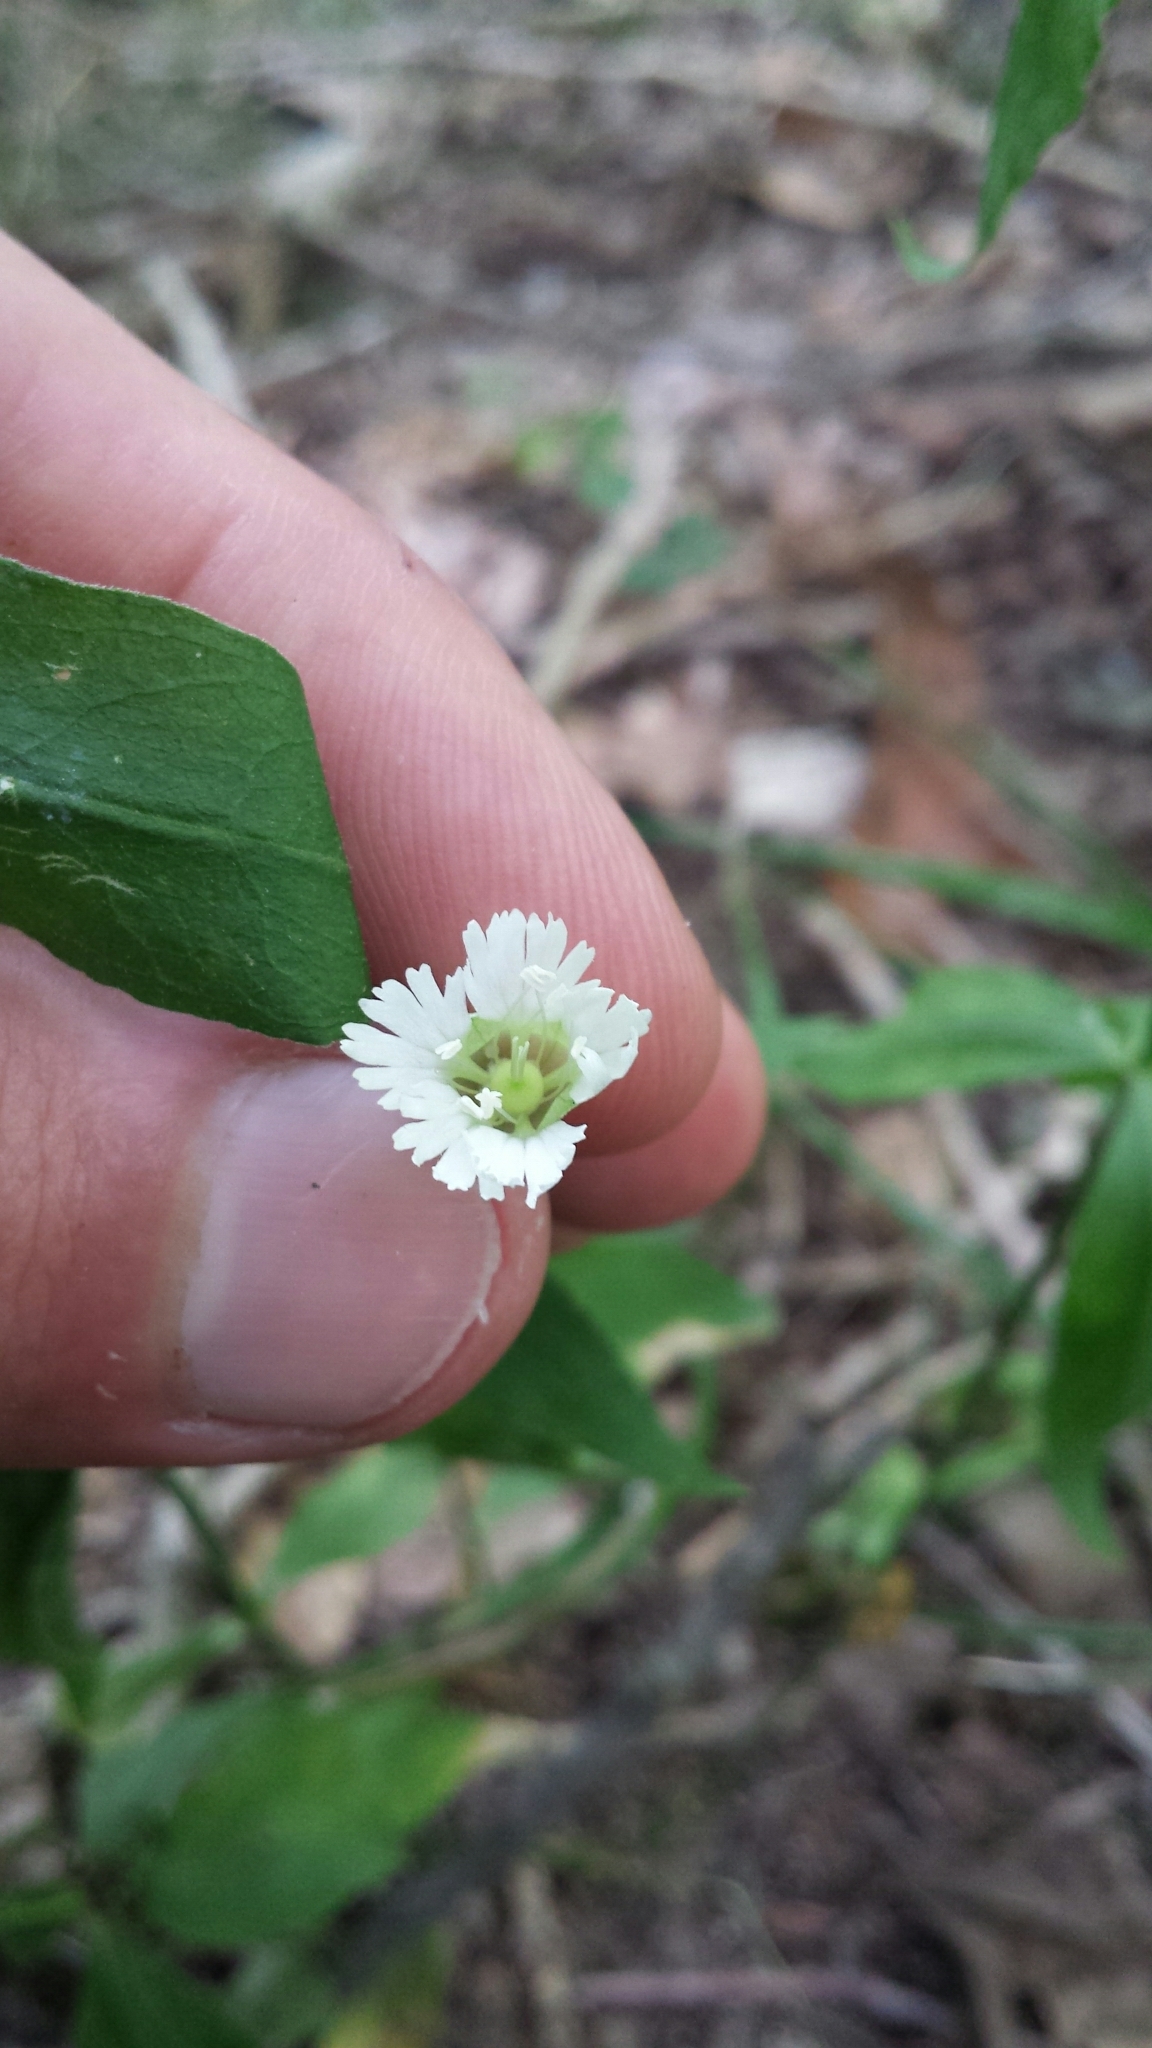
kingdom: Plantae
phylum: Tracheophyta
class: Magnoliopsida
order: Caryophyllales
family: Caryophyllaceae
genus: Silene
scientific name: Silene stellata
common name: Starry campion
